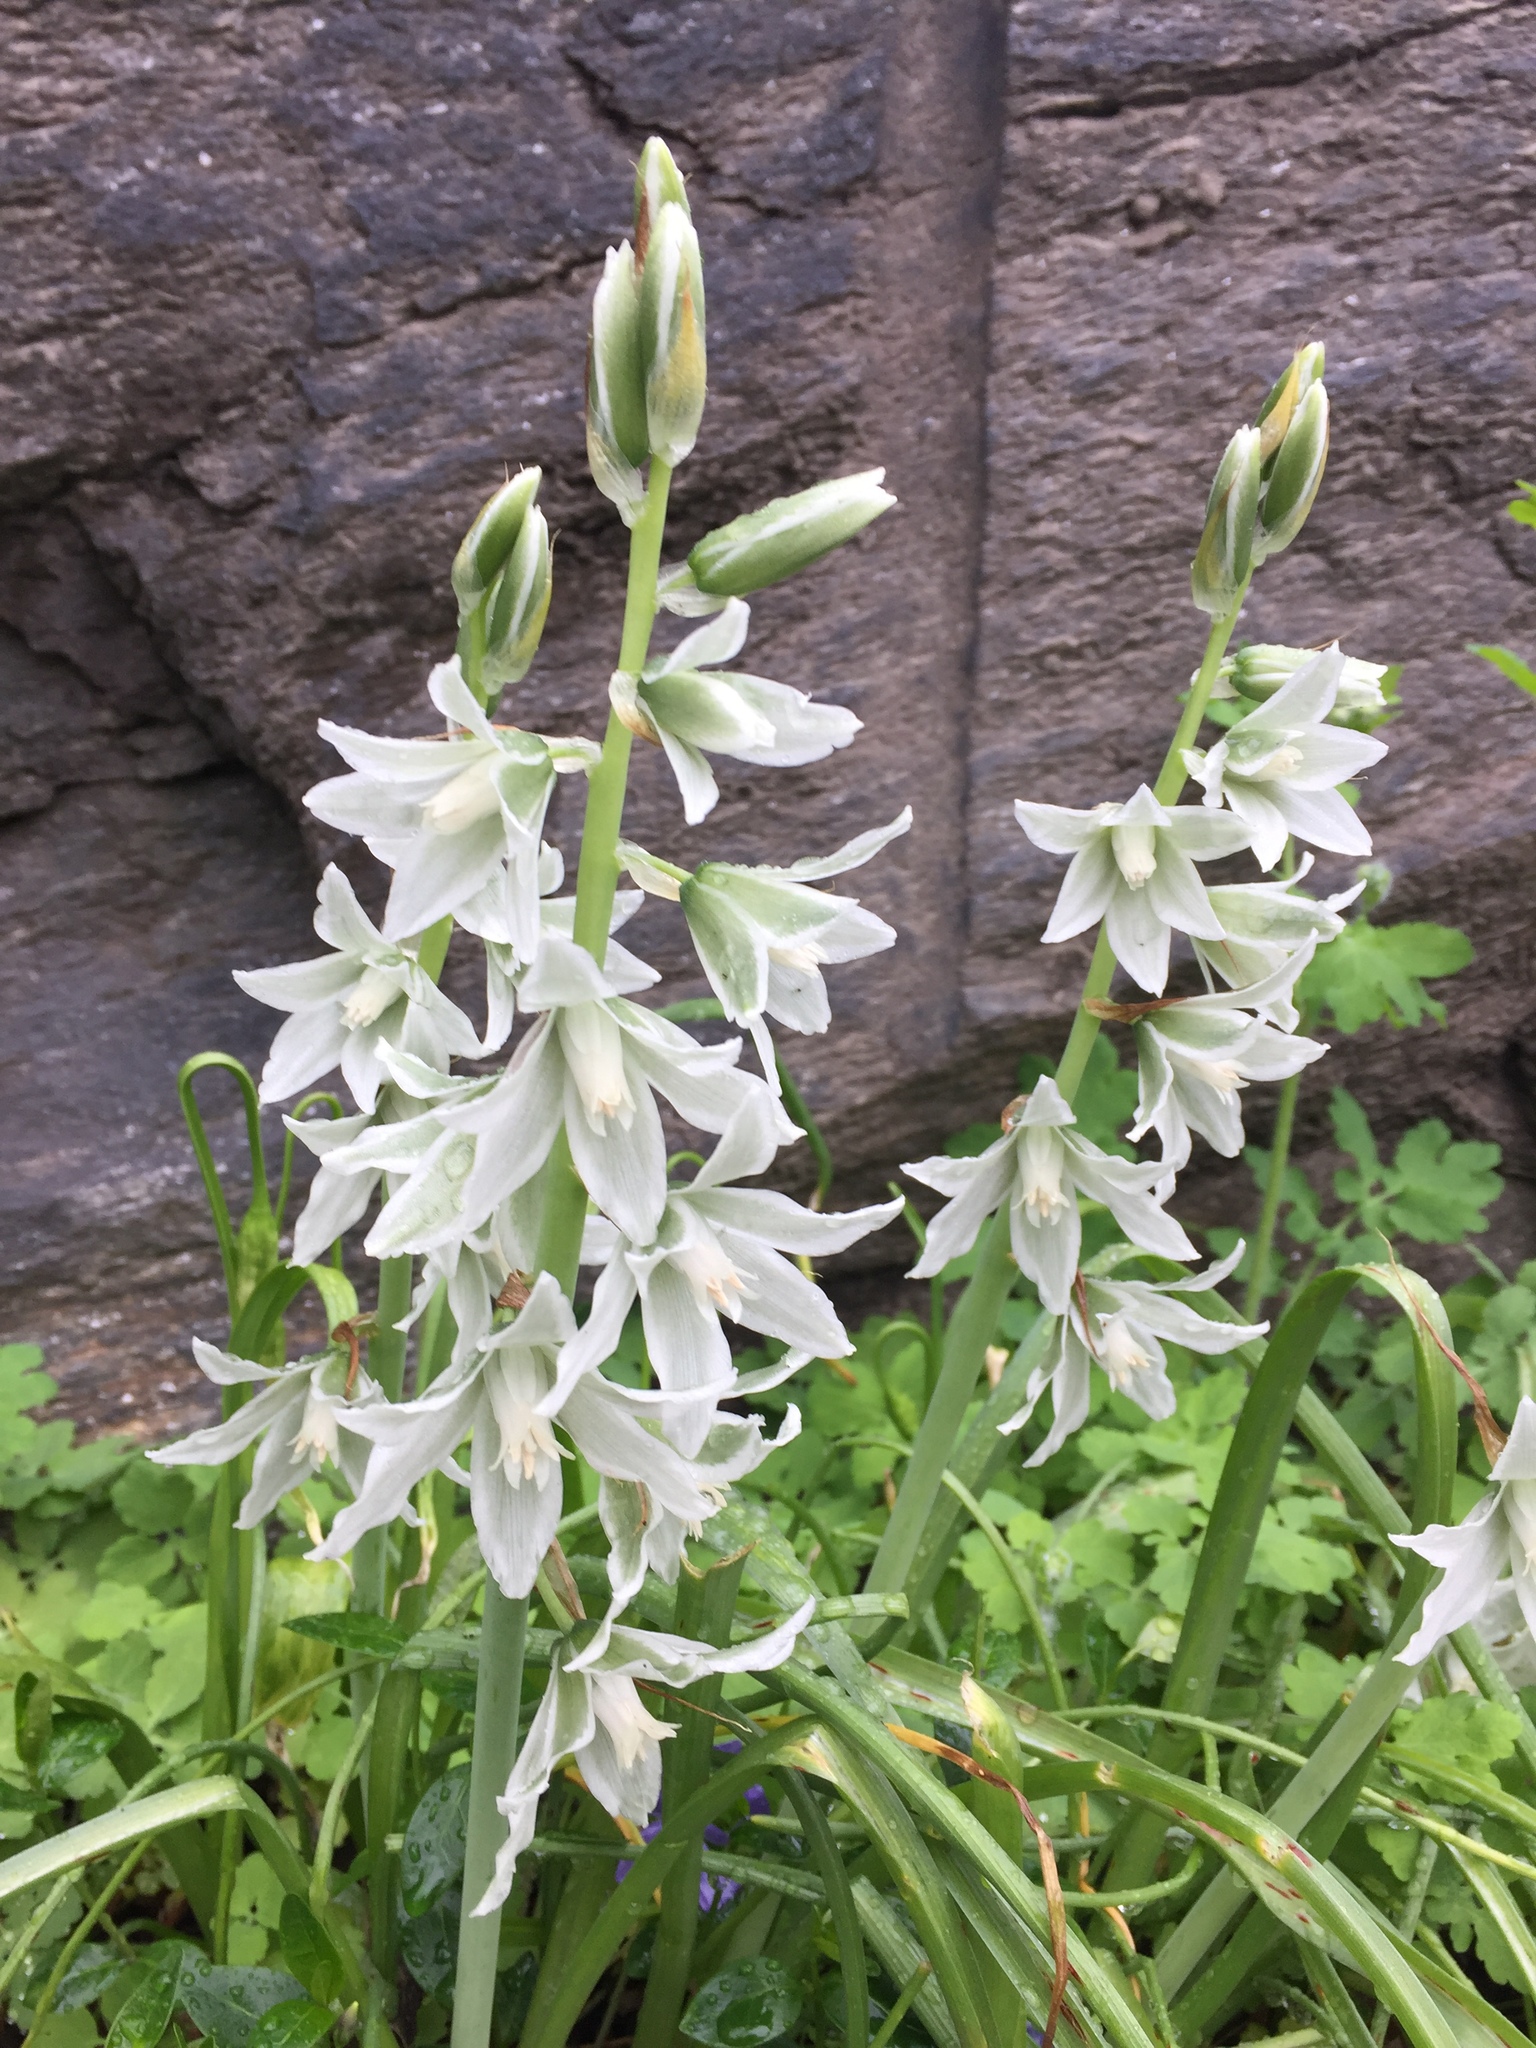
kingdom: Plantae
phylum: Tracheophyta
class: Liliopsida
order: Asparagales
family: Asparagaceae
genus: Ornithogalum
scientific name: Ornithogalum nutans
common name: Drooping star-of-bethlehem
